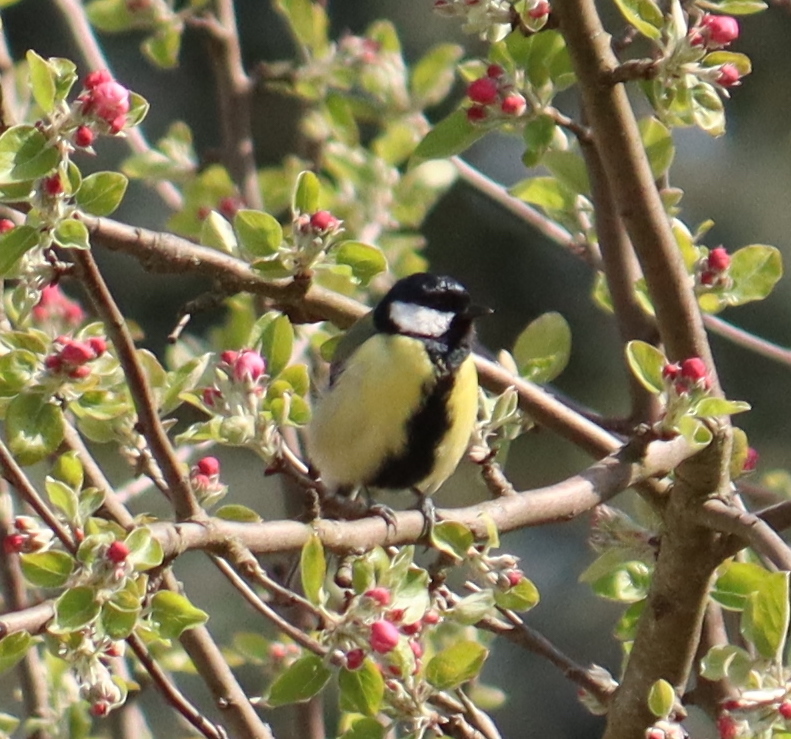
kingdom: Animalia
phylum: Chordata
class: Aves
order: Passeriformes
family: Paridae
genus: Parus
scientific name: Parus major
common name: Great tit
